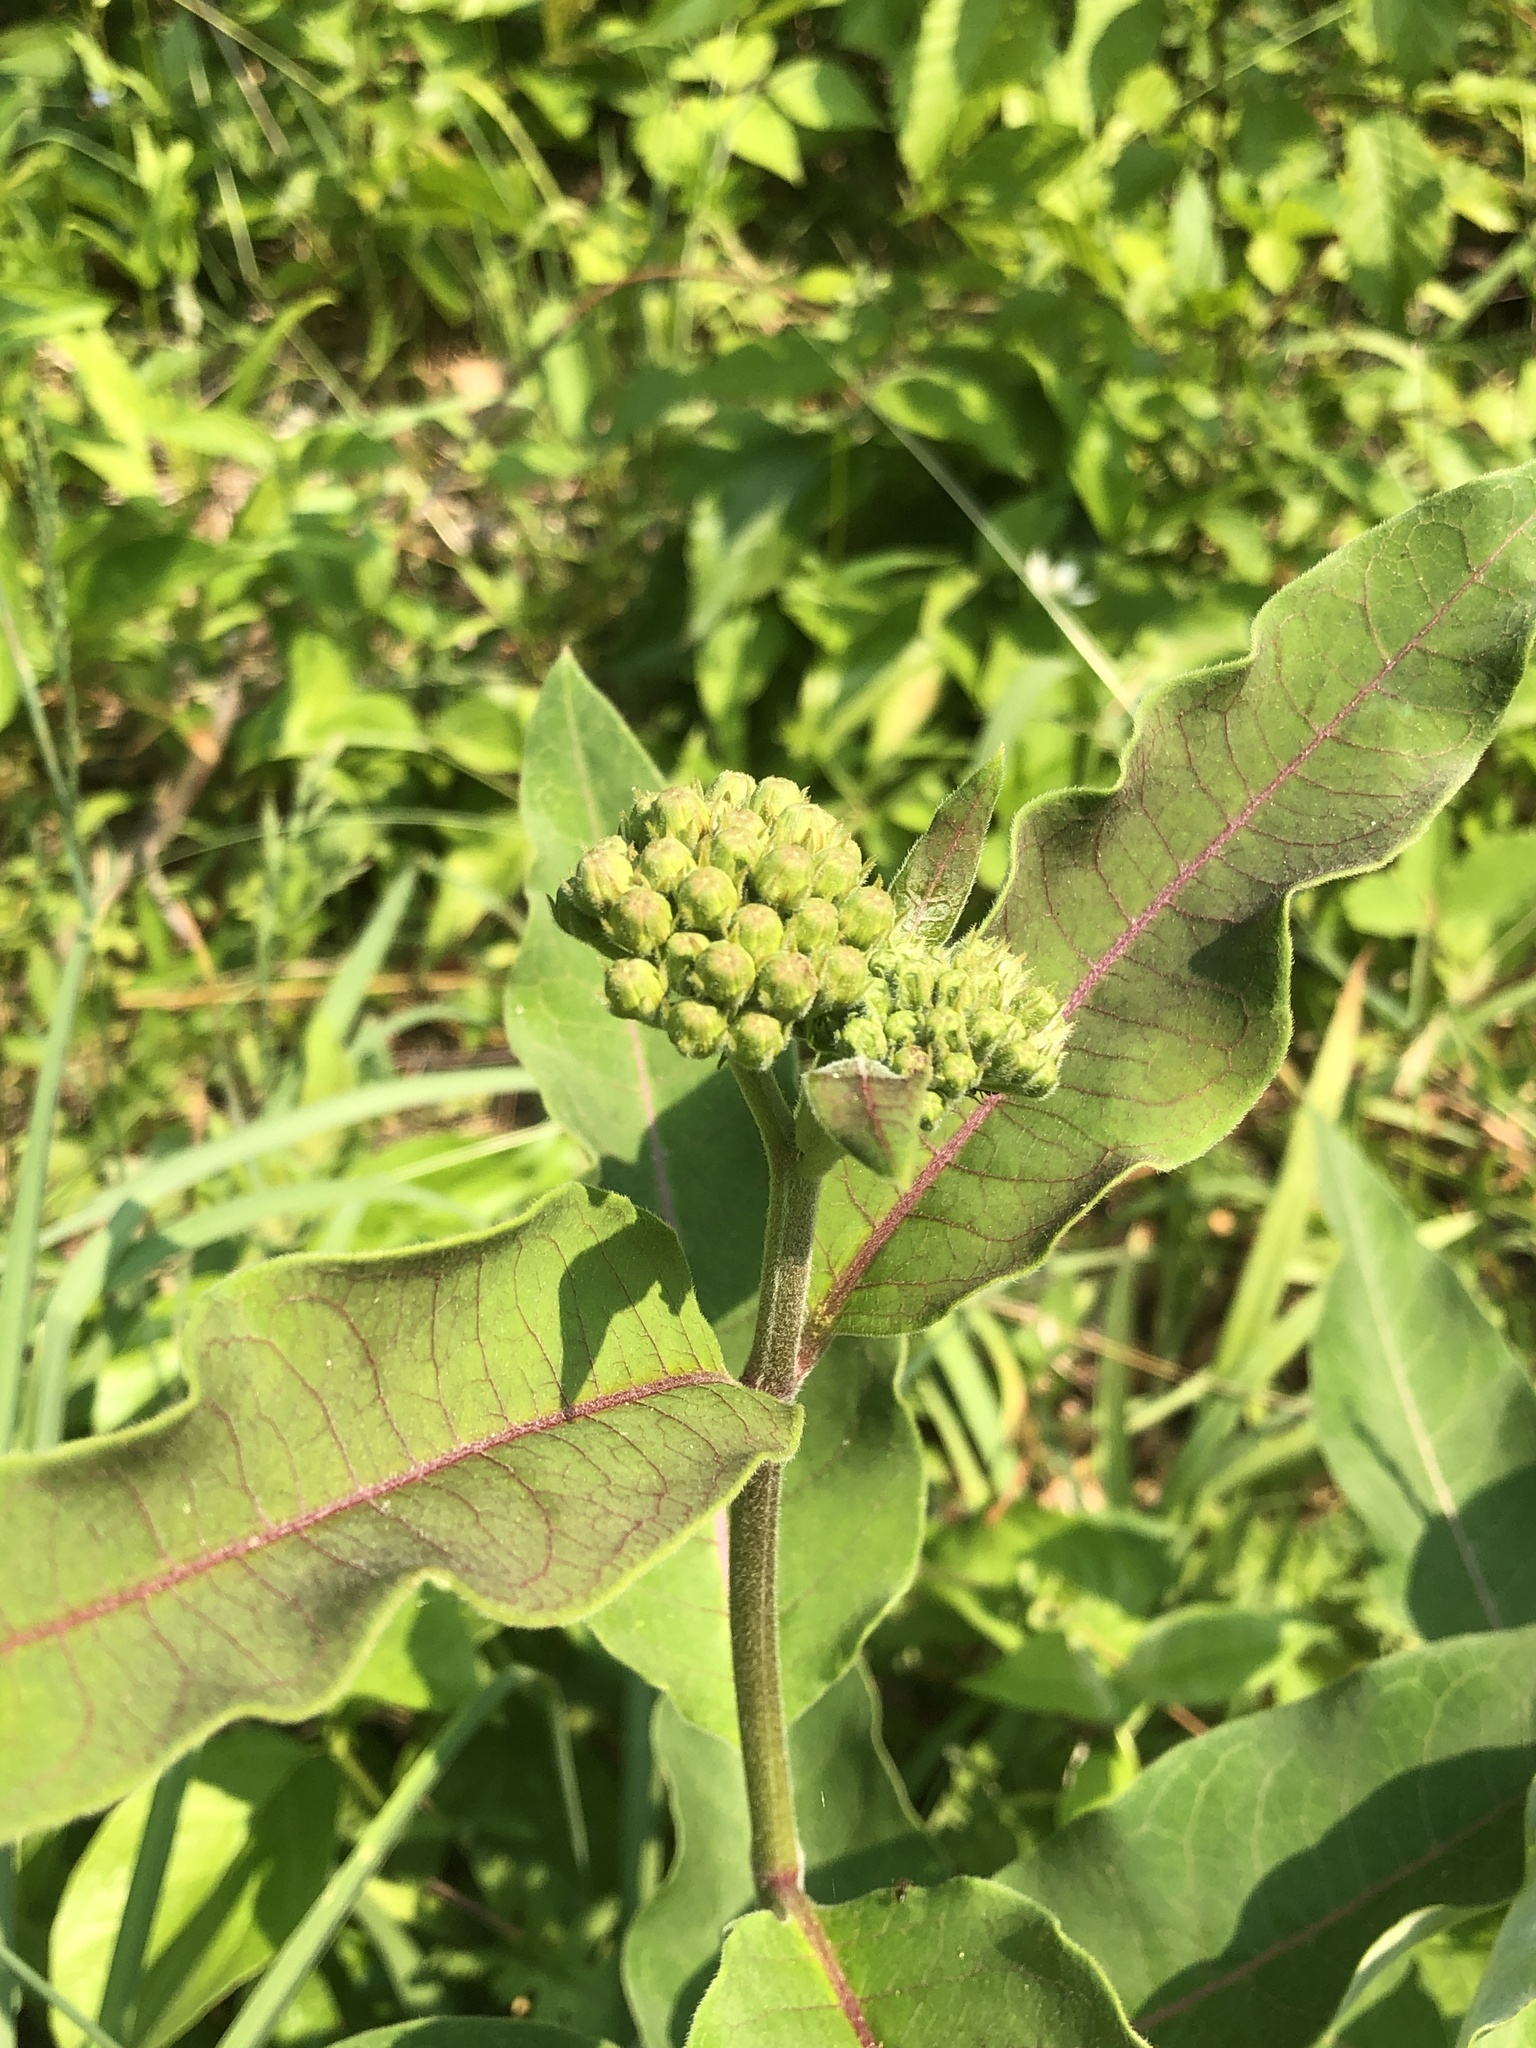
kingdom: Plantae
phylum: Tracheophyta
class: Magnoliopsida
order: Gentianales
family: Apocynaceae
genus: Asclepias
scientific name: Asclepias purpurascens
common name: Purple milkweed
